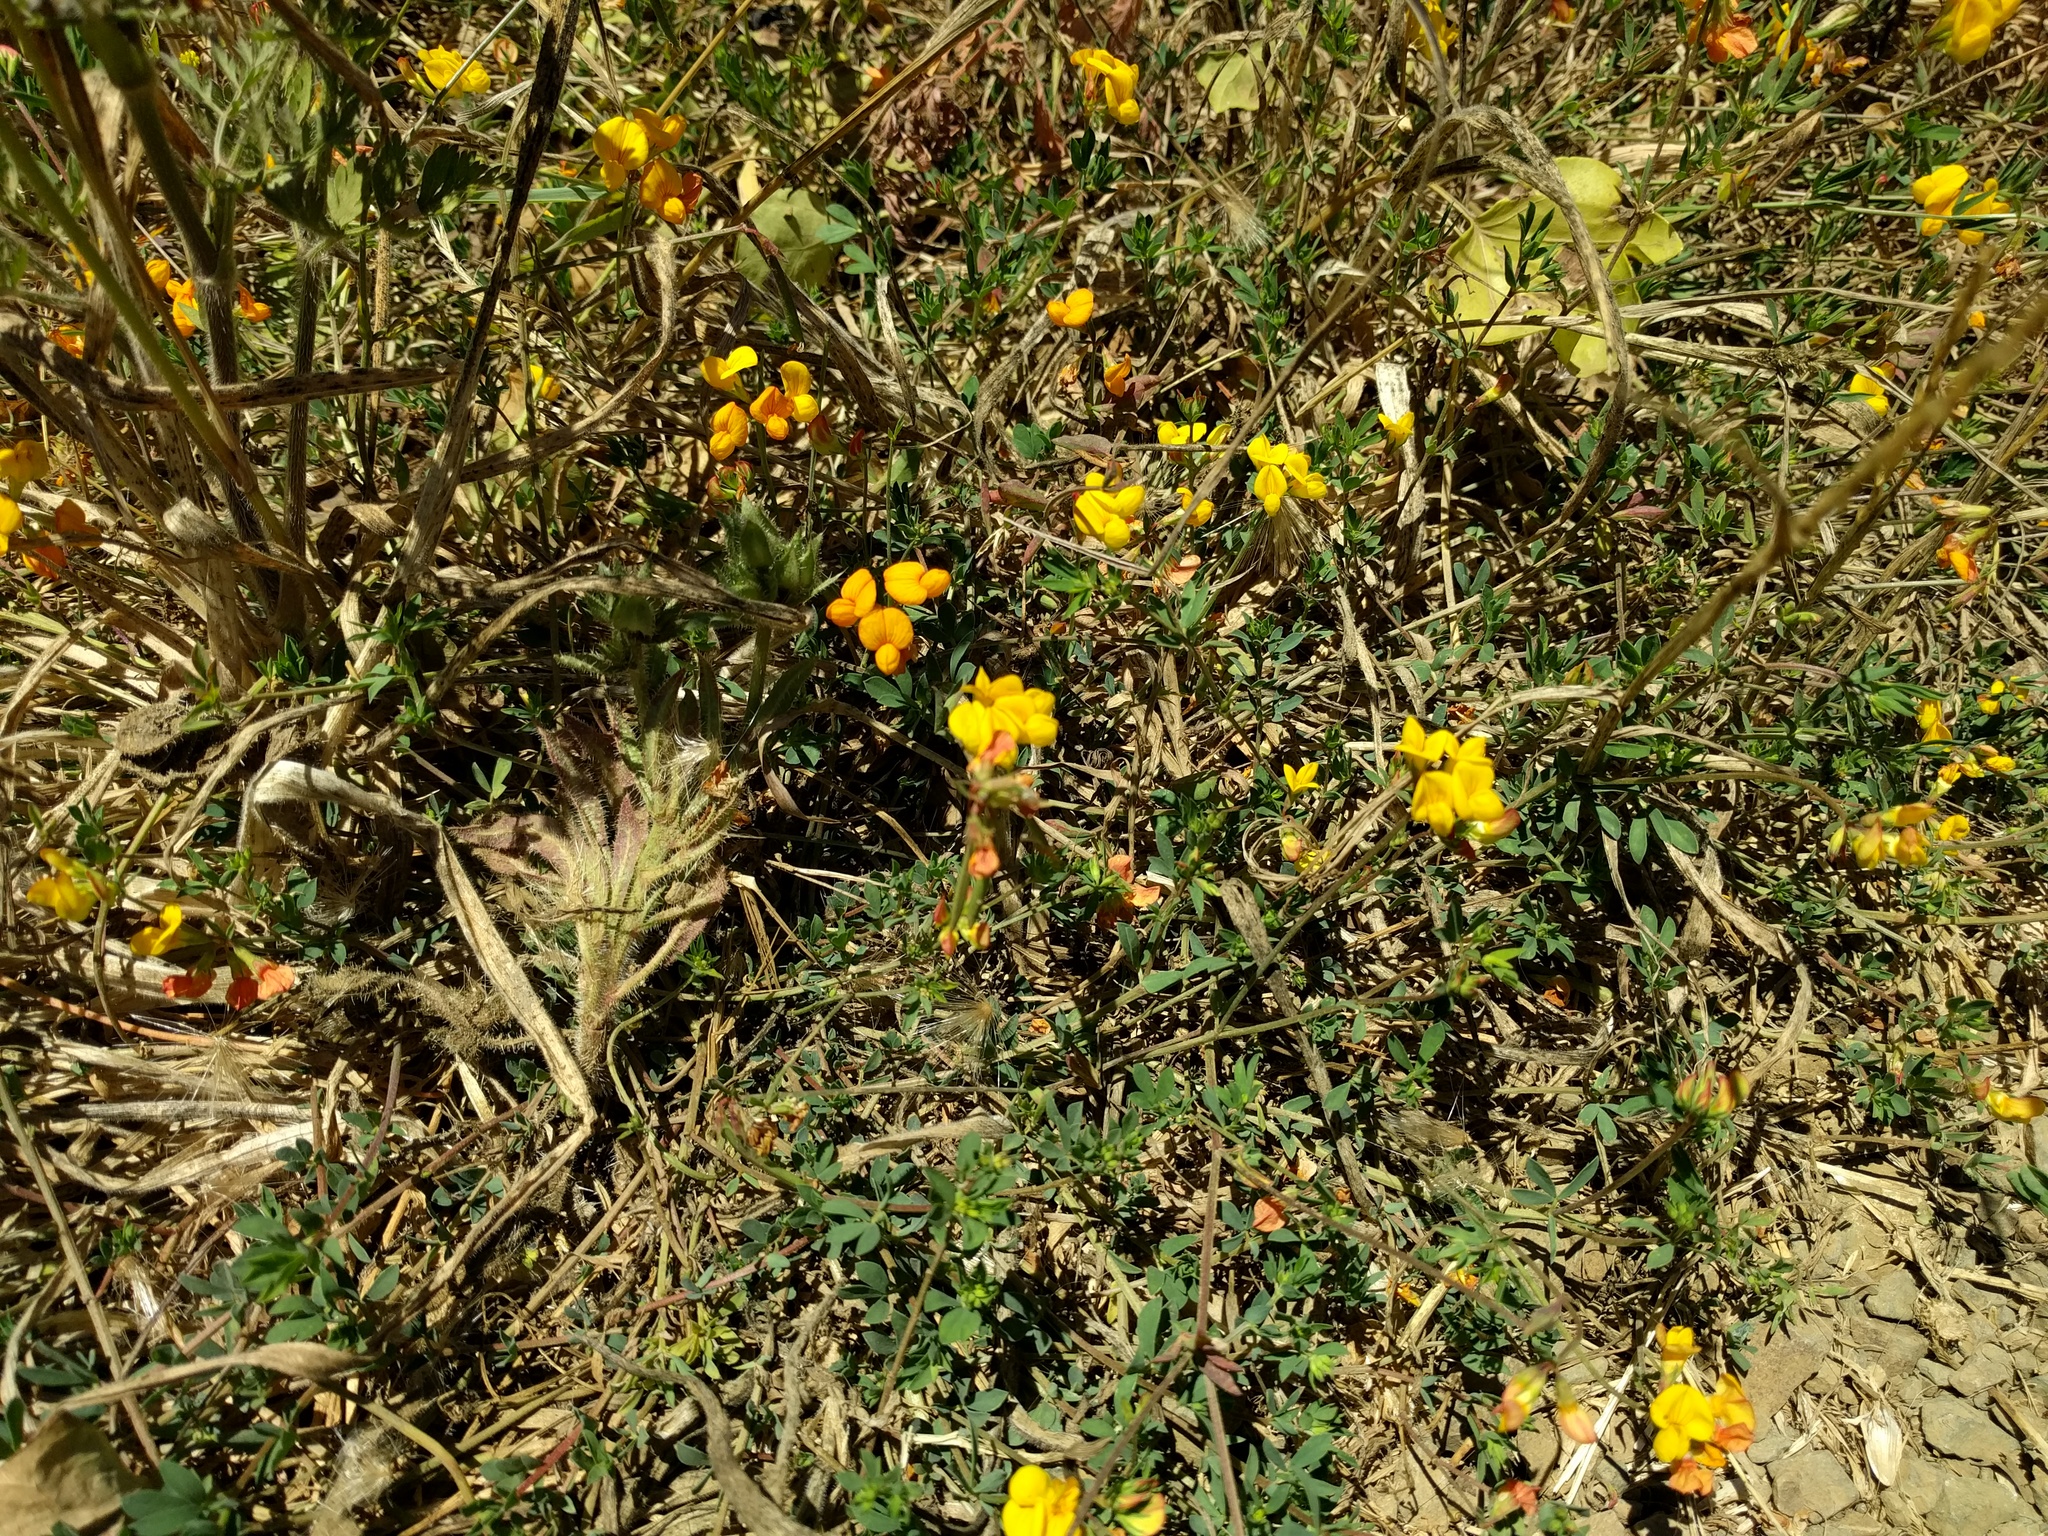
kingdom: Plantae
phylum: Tracheophyta
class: Magnoliopsida
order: Fabales
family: Fabaceae
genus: Lotus
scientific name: Lotus corniculatus
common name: Common bird's-foot-trefoil
